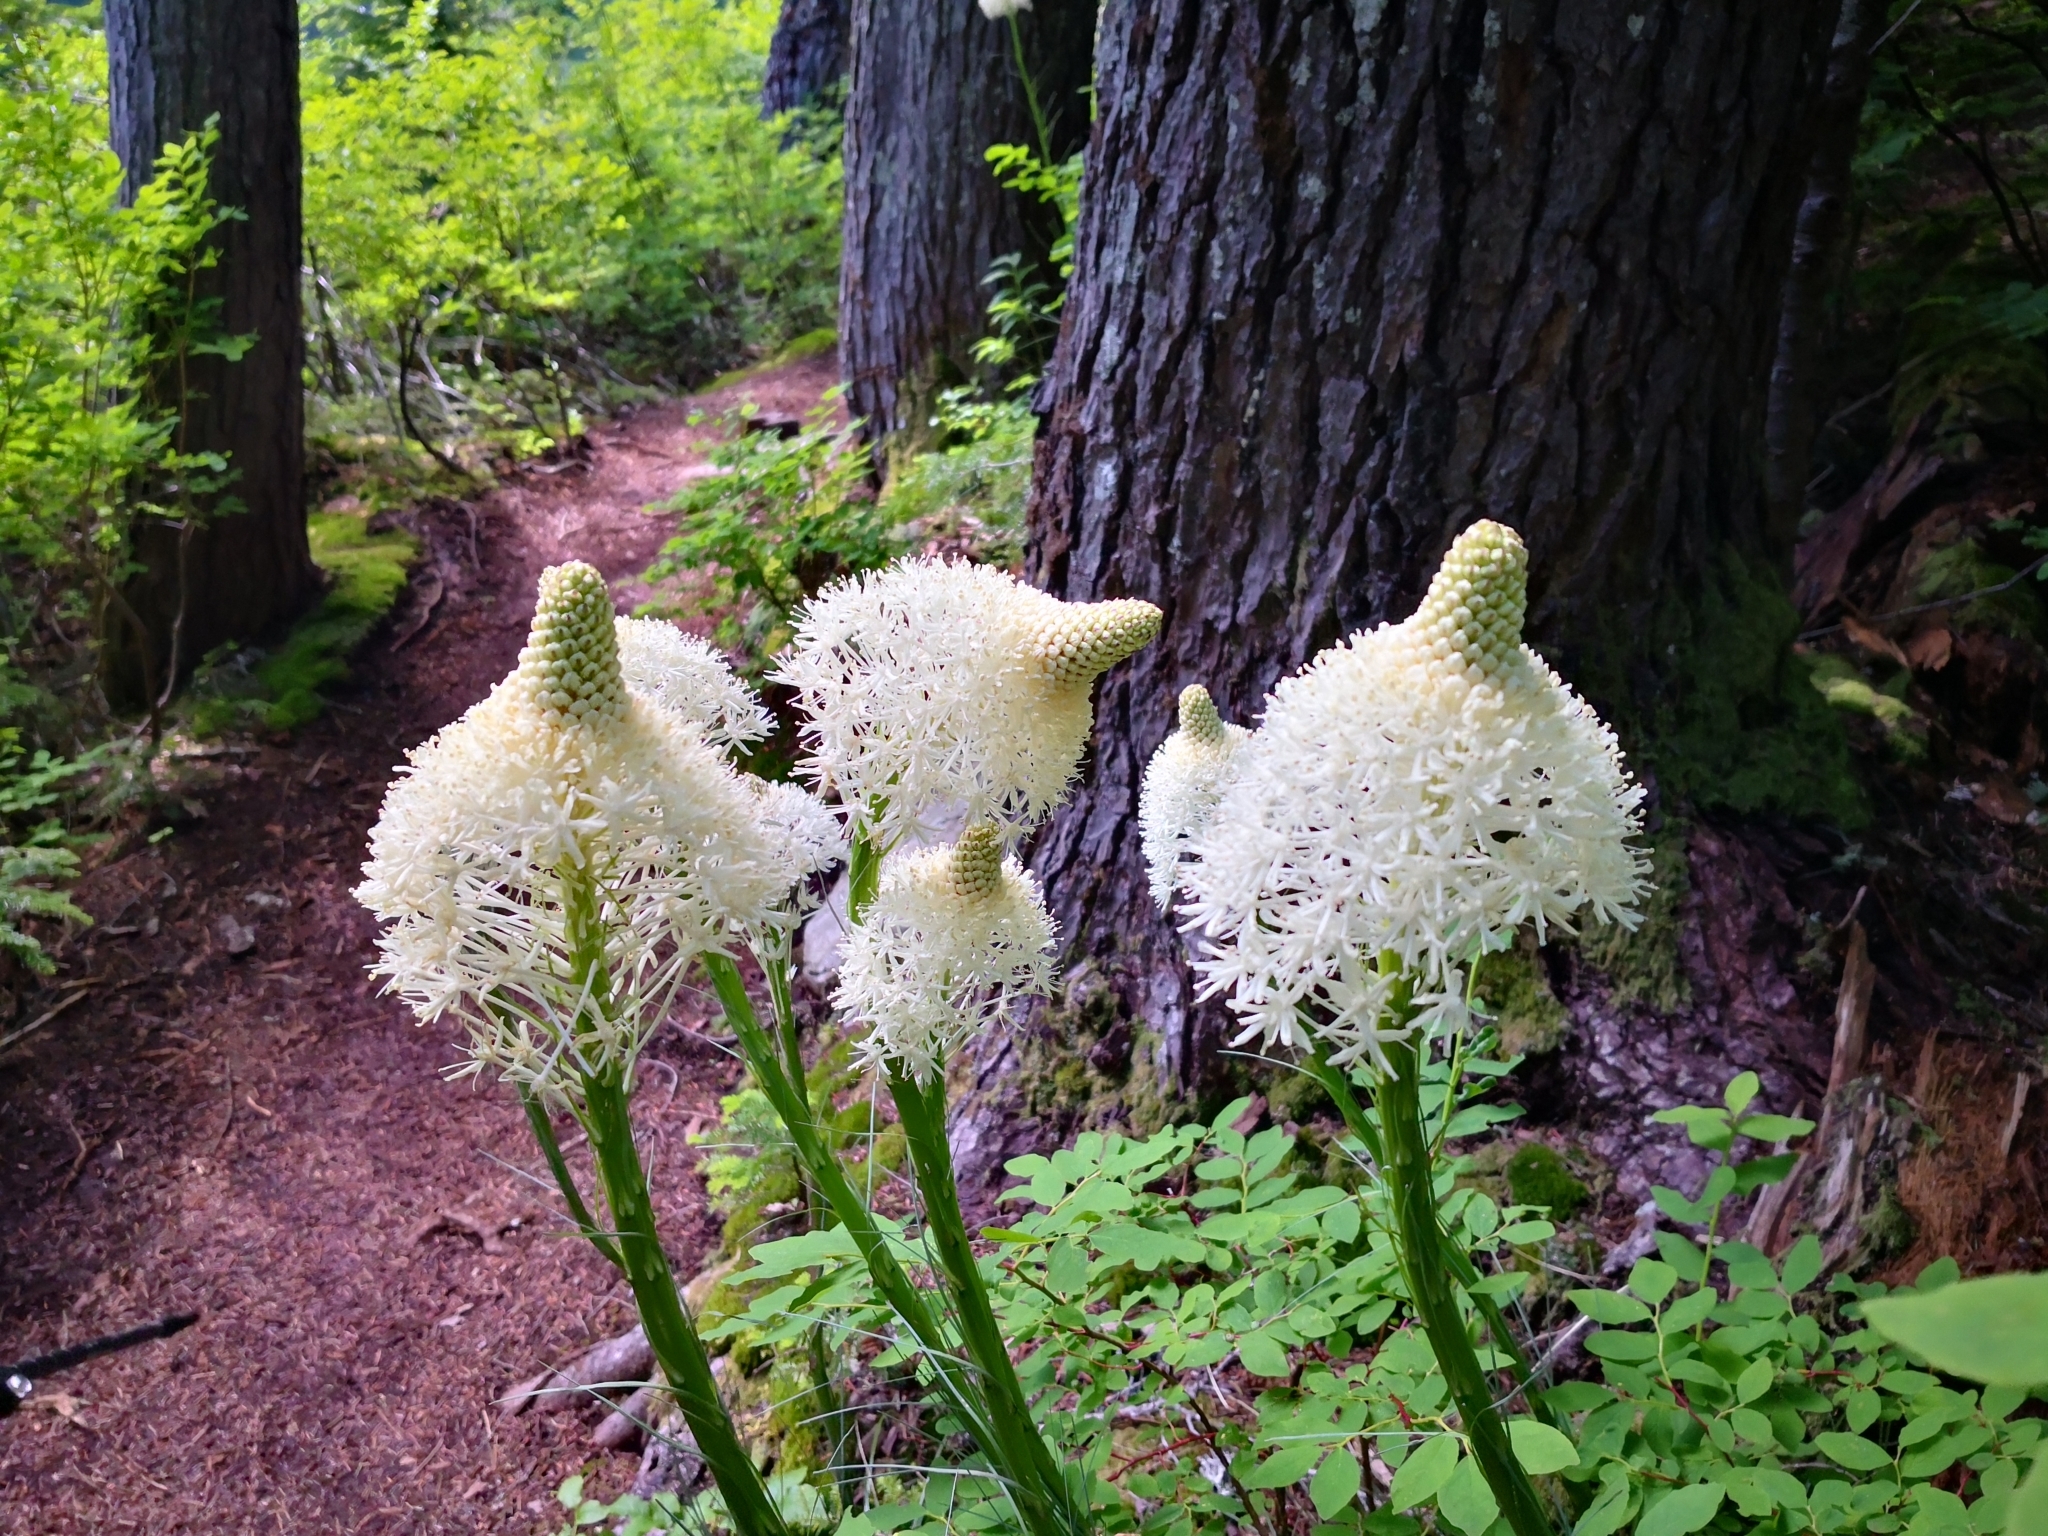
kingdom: Plantae
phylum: Tracheophyta
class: Liliopsida
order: Liliales
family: Melanthiaceae
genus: Xerophyllum
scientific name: Xerophyllum tenax
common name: Bear-grass
